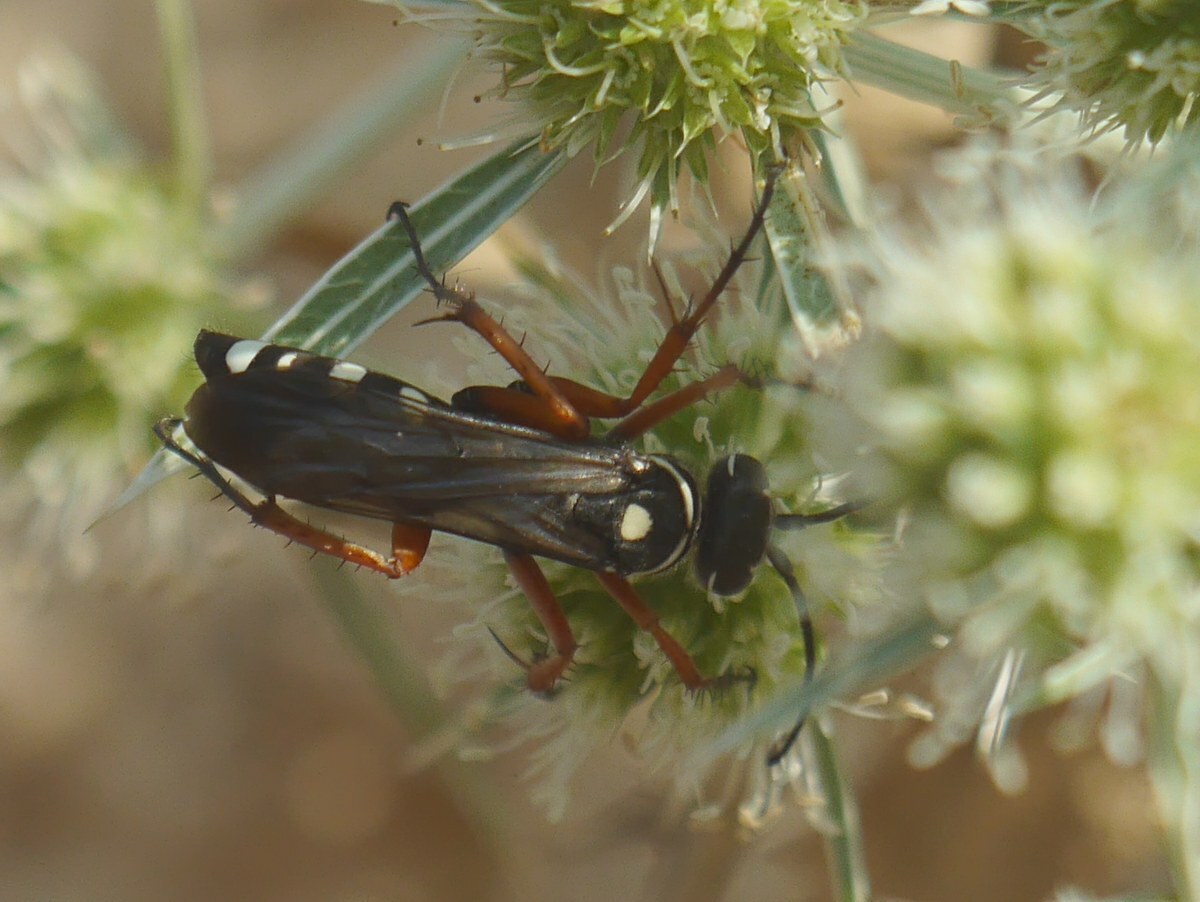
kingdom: Animalia
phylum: Arthropoda
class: Insecta
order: Hymenoptera
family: Pompilidae
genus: Episyron
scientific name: Episyron albonotatum
